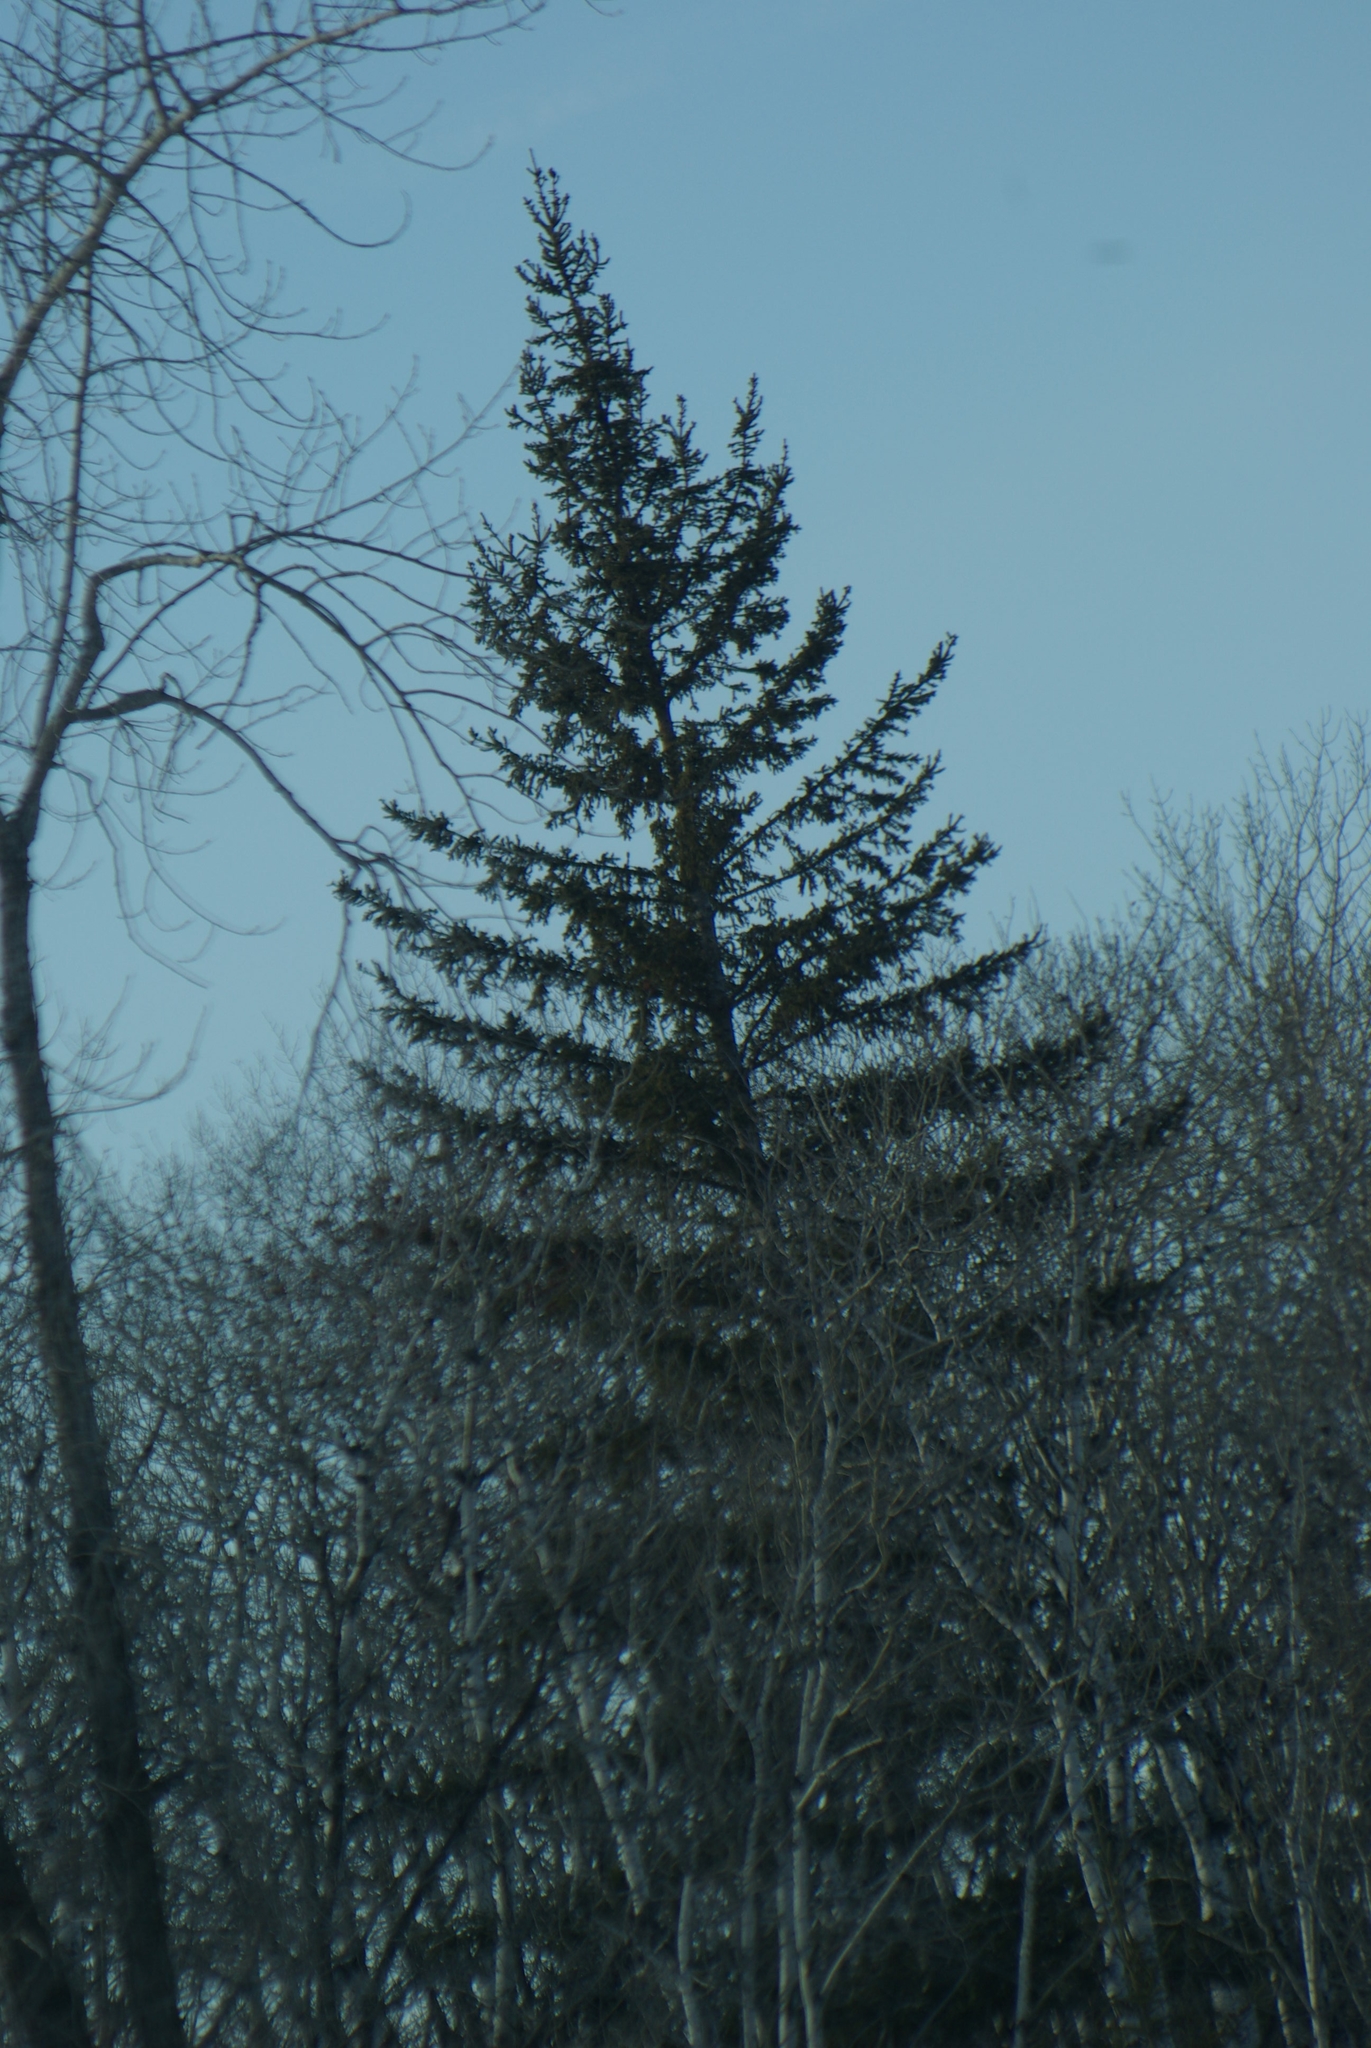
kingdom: Plantae
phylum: Tracheophyta
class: Pinopsida
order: Pinales
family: Pinaceae
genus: Picea
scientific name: Picea glauca
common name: White spruce
